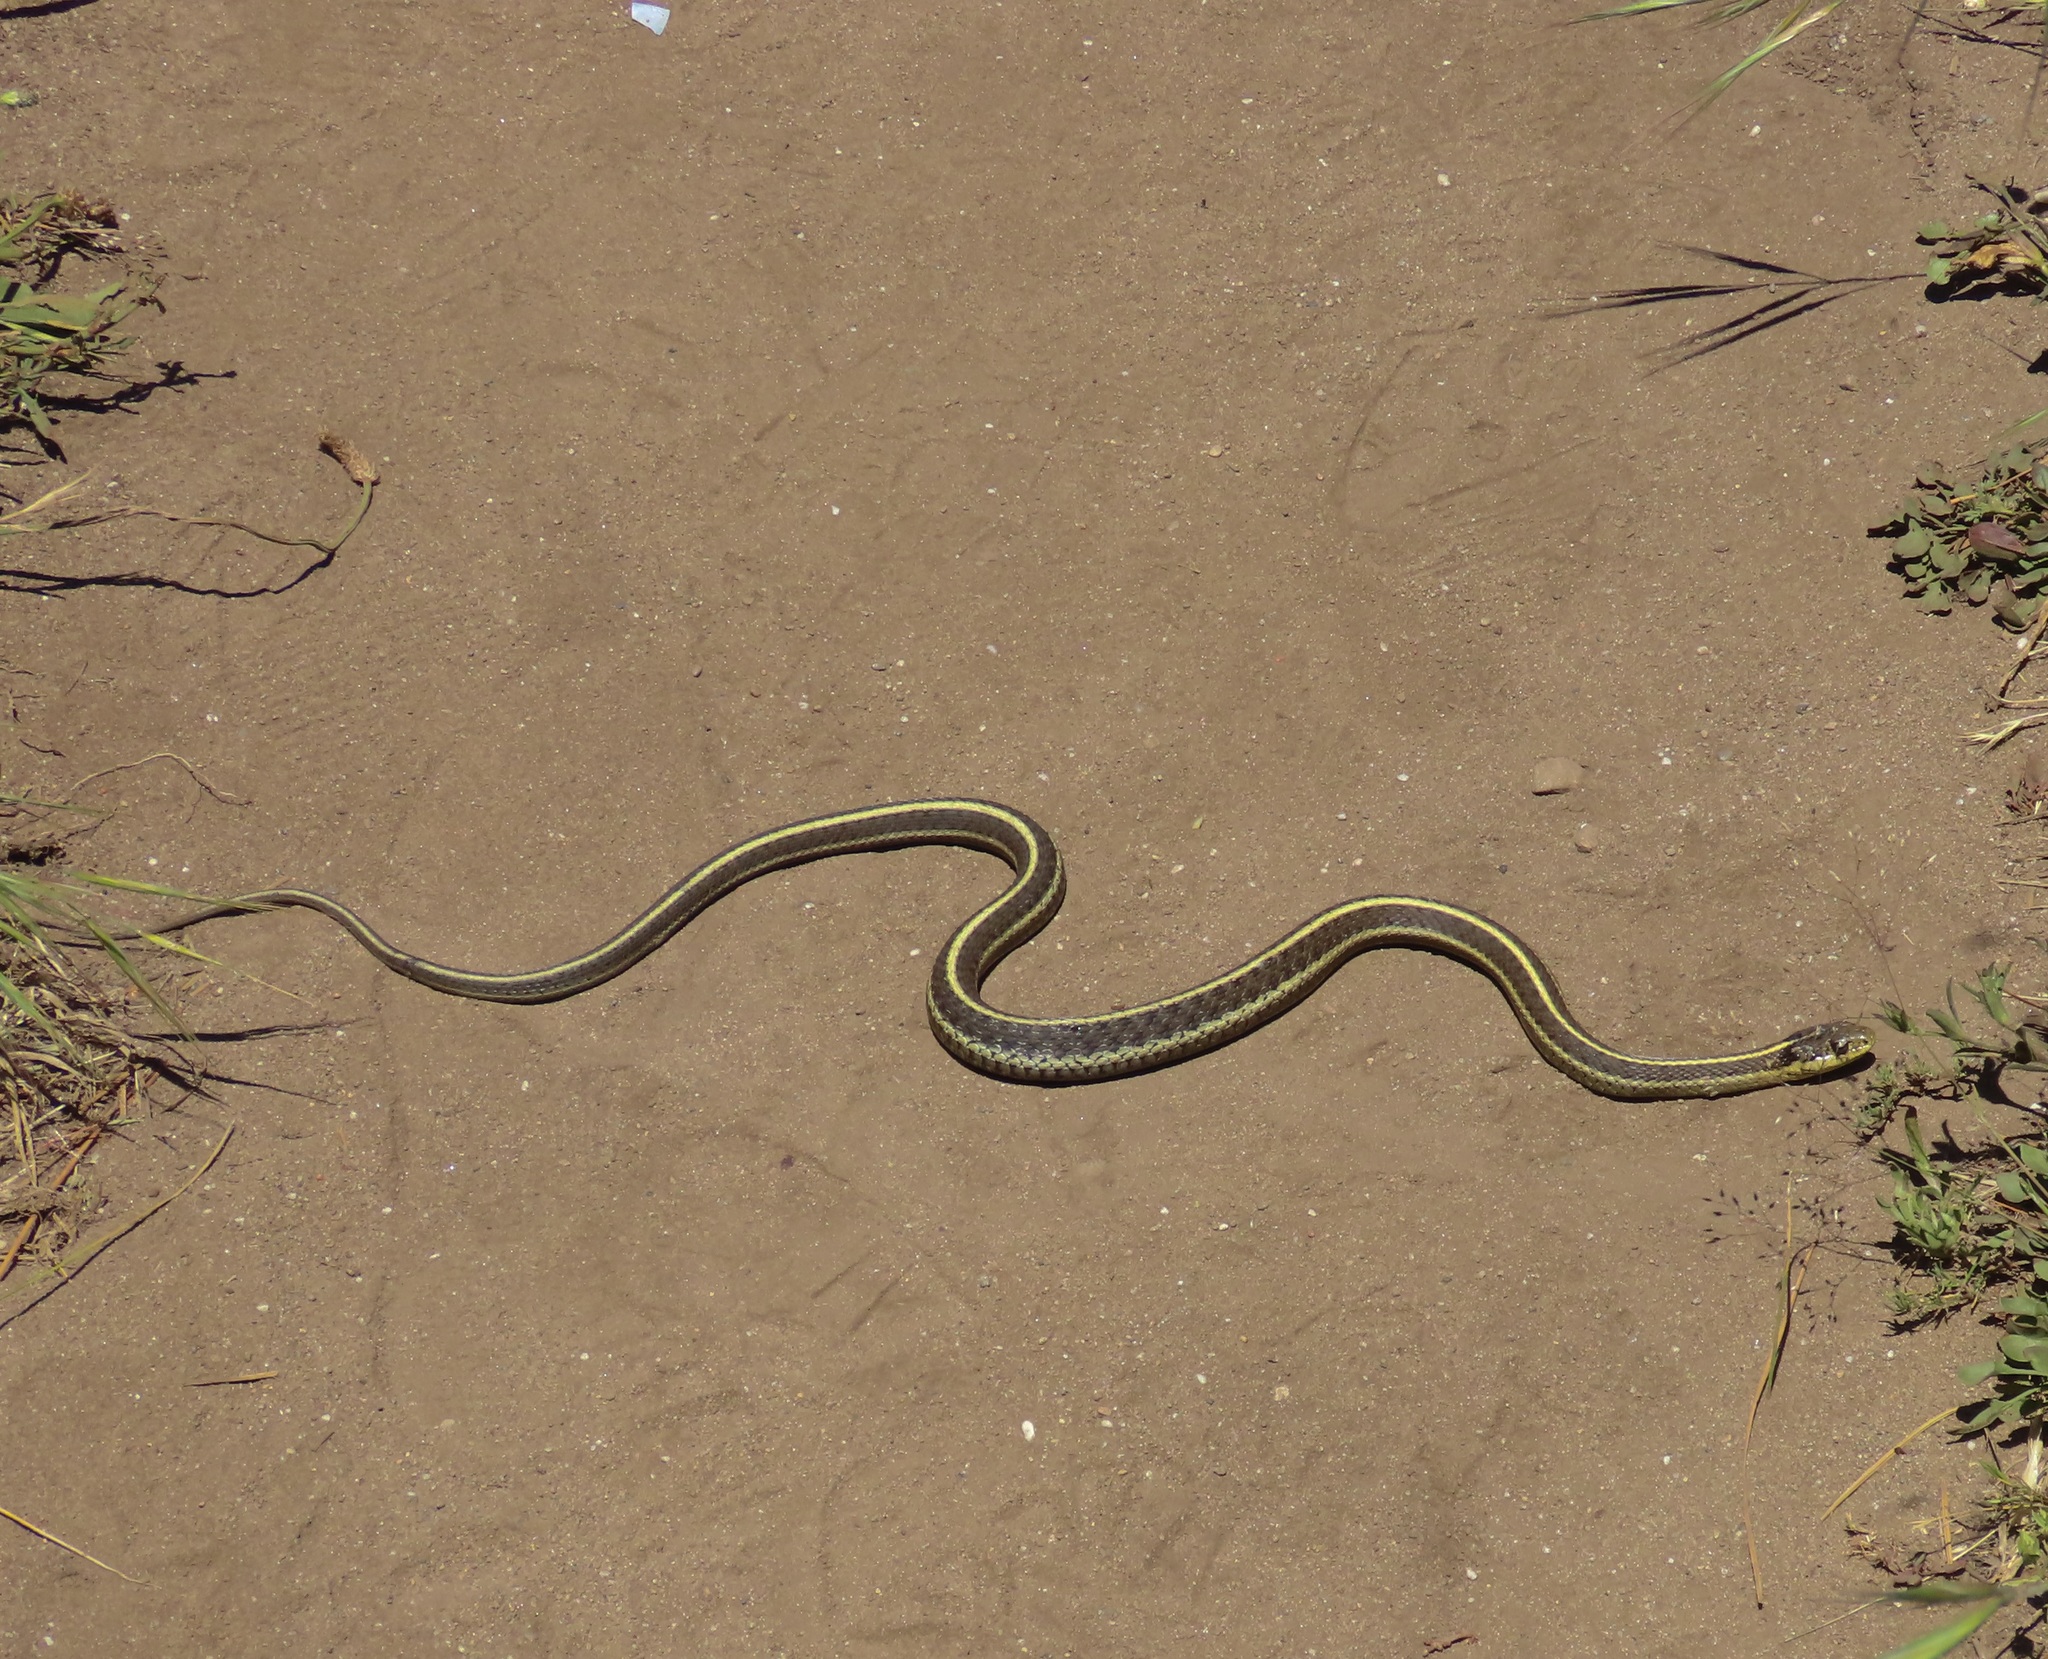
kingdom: Animalia
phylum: Chordata
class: Squamata
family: Colubridae
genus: Thamnophis
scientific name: Thamnophis elegans
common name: Western terrestrial garter snake
